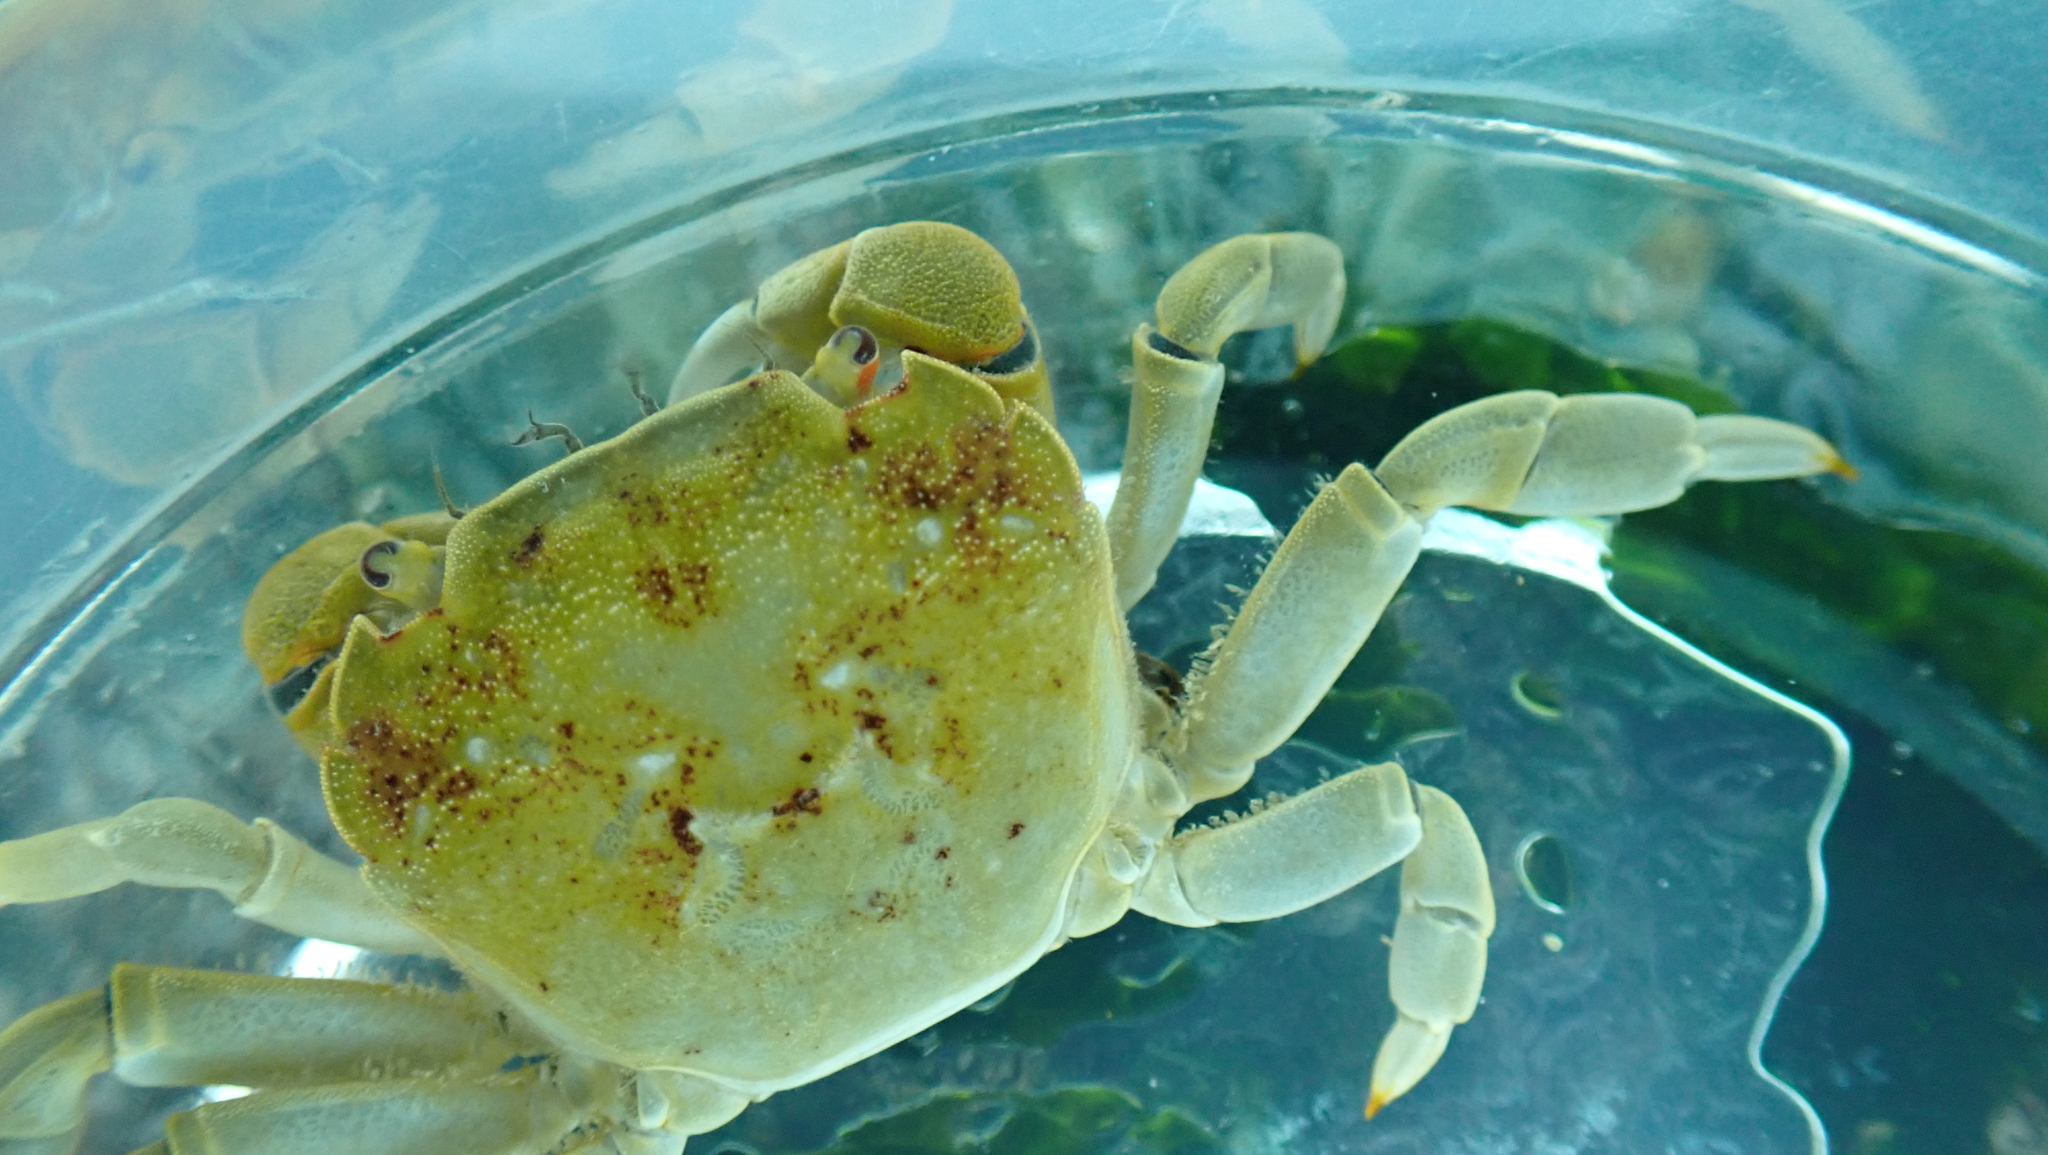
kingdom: Animalia
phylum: Arthropoda
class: Malacostraca
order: Decapoda
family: Varunidae
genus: Hemigrapsus
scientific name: Hemigrapsus nudus
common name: Purple shore crab
